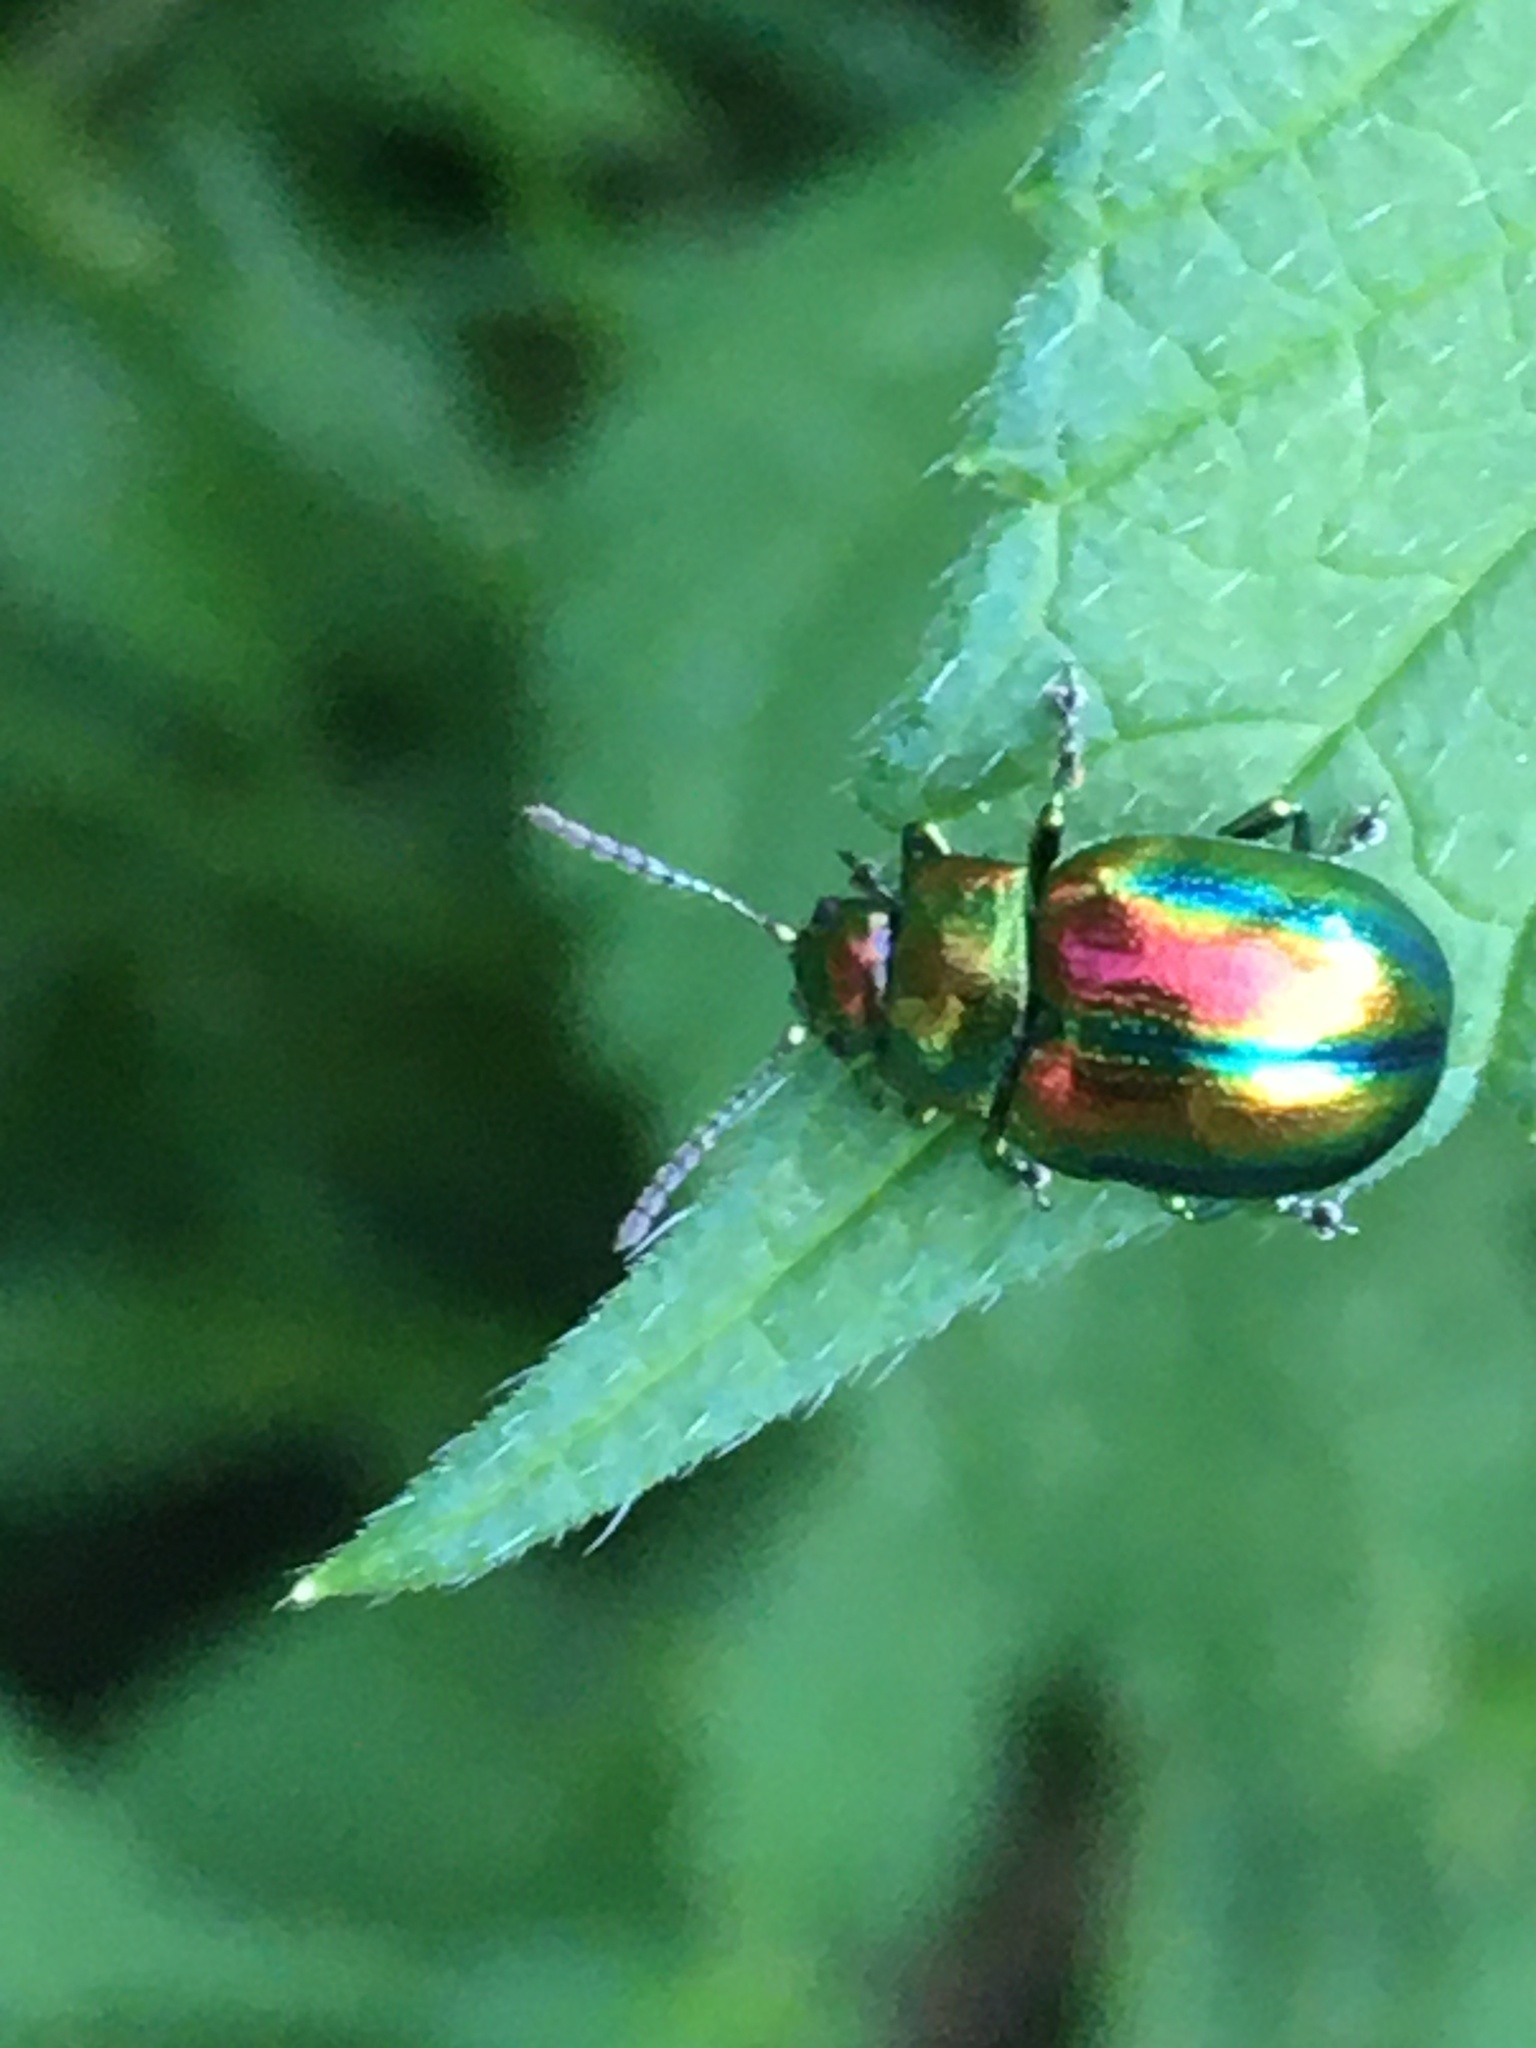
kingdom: Animalia
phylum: Arthropoda
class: Insecta
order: Coleoptera
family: Chrysomelidae
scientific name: Chrysomelidae
